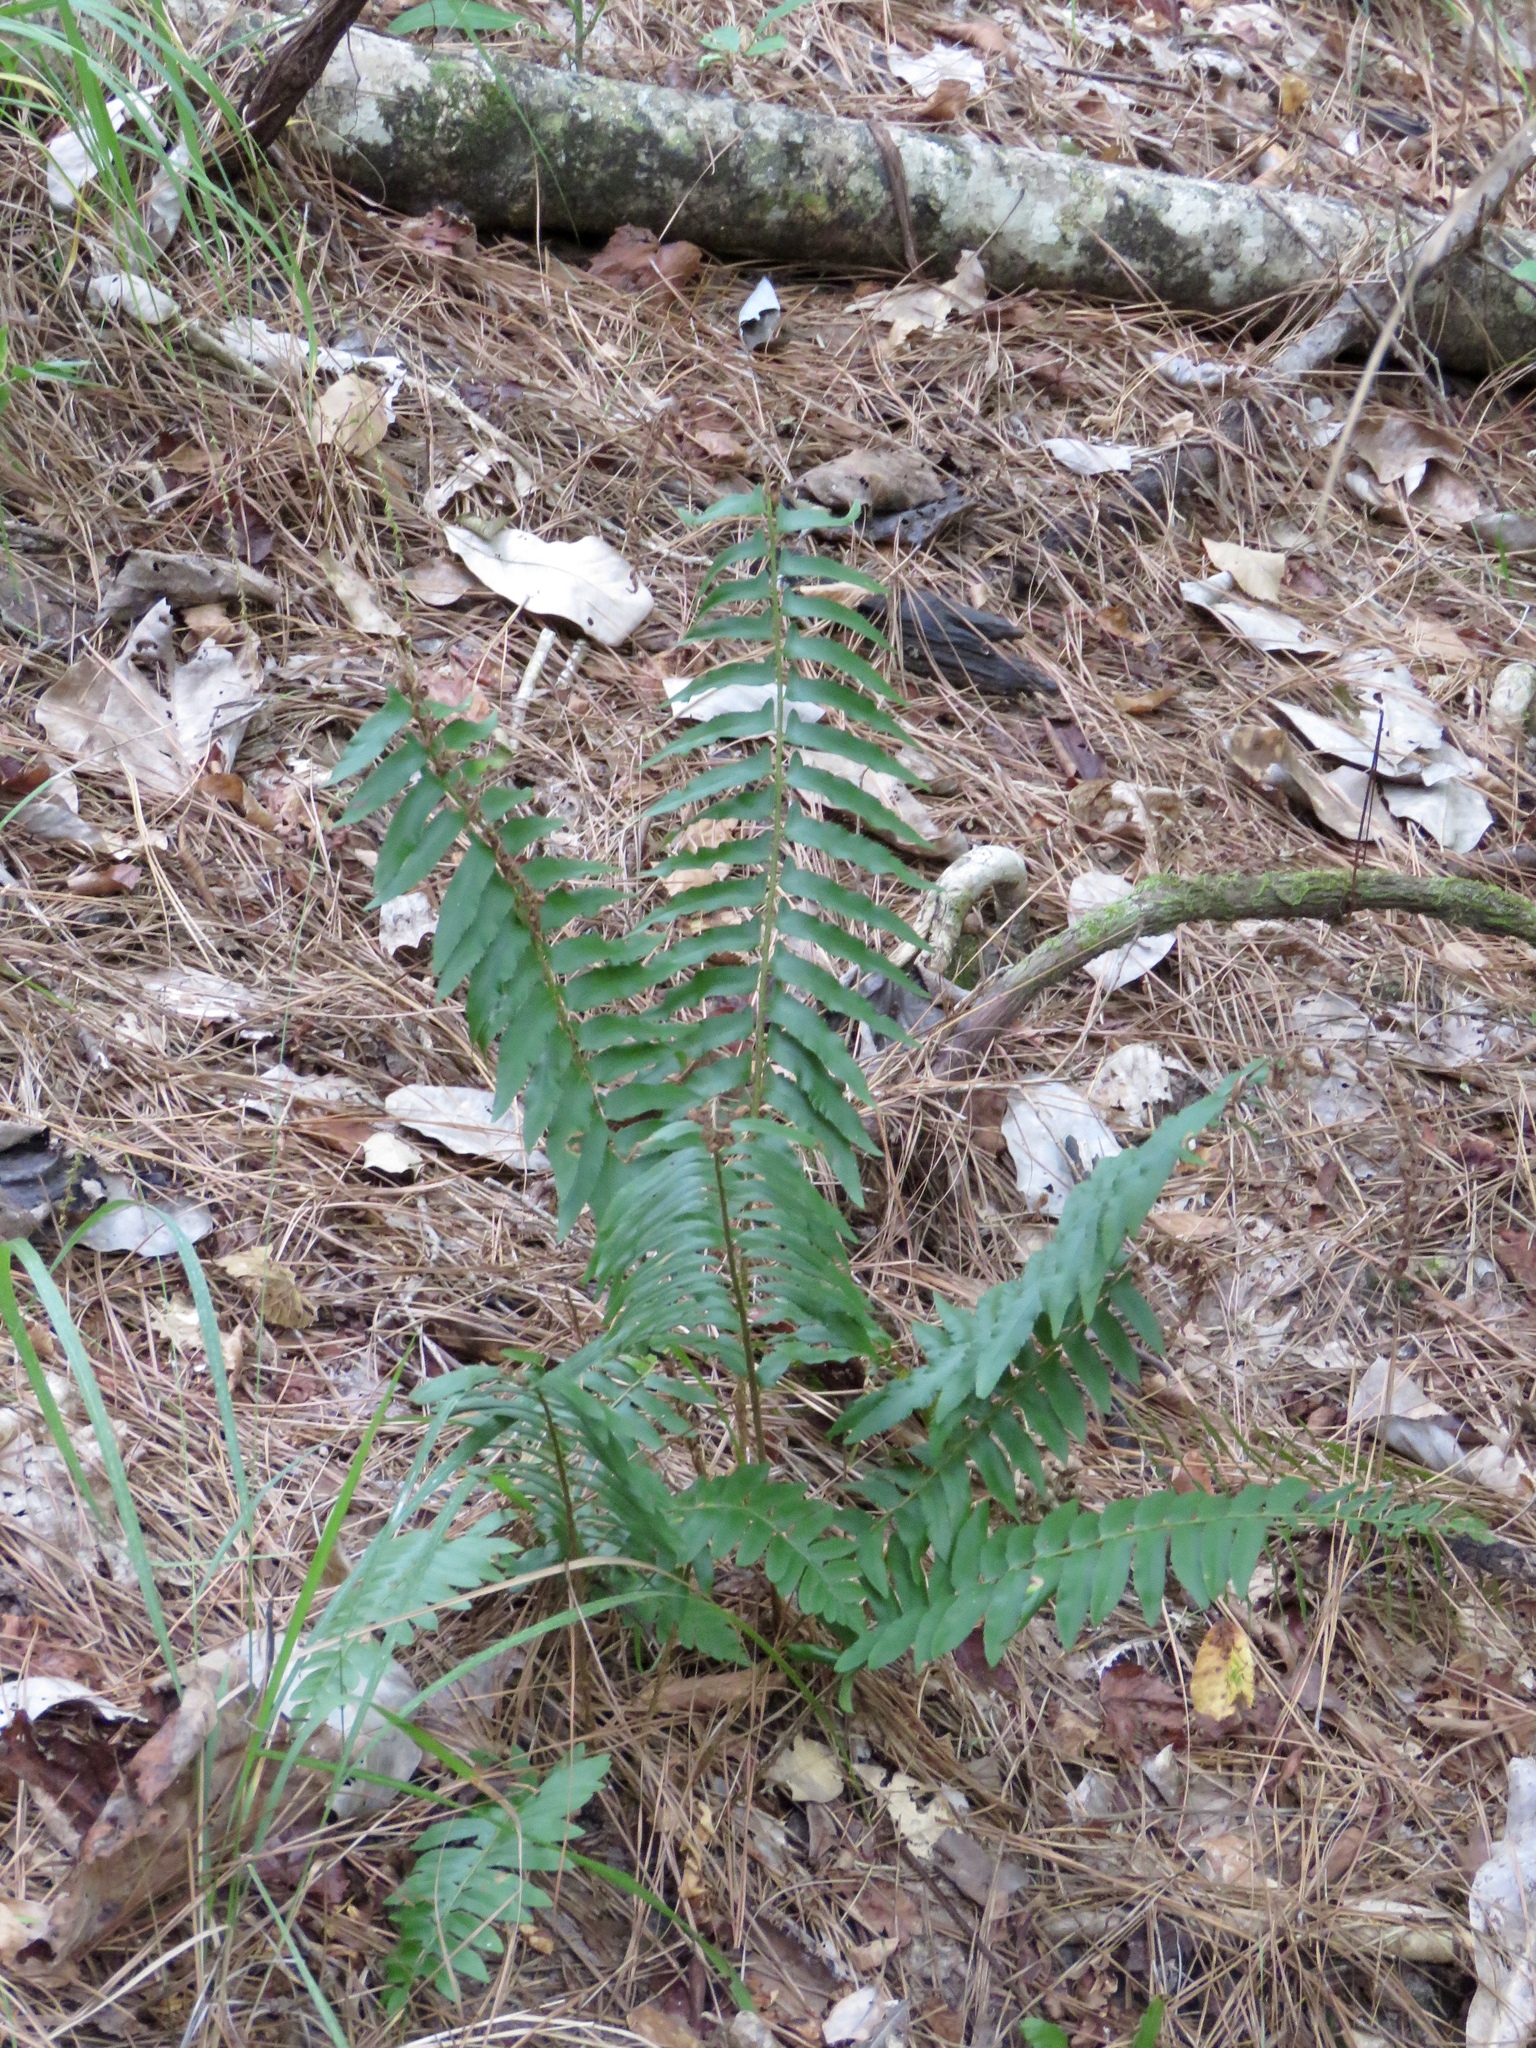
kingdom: Plantae
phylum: Tracheophyta
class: Polypodiopsida
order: Polypodiales
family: Dryopteridaceae
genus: Polystichum
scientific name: Polystichum acrostichoides
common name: Christmas fern
